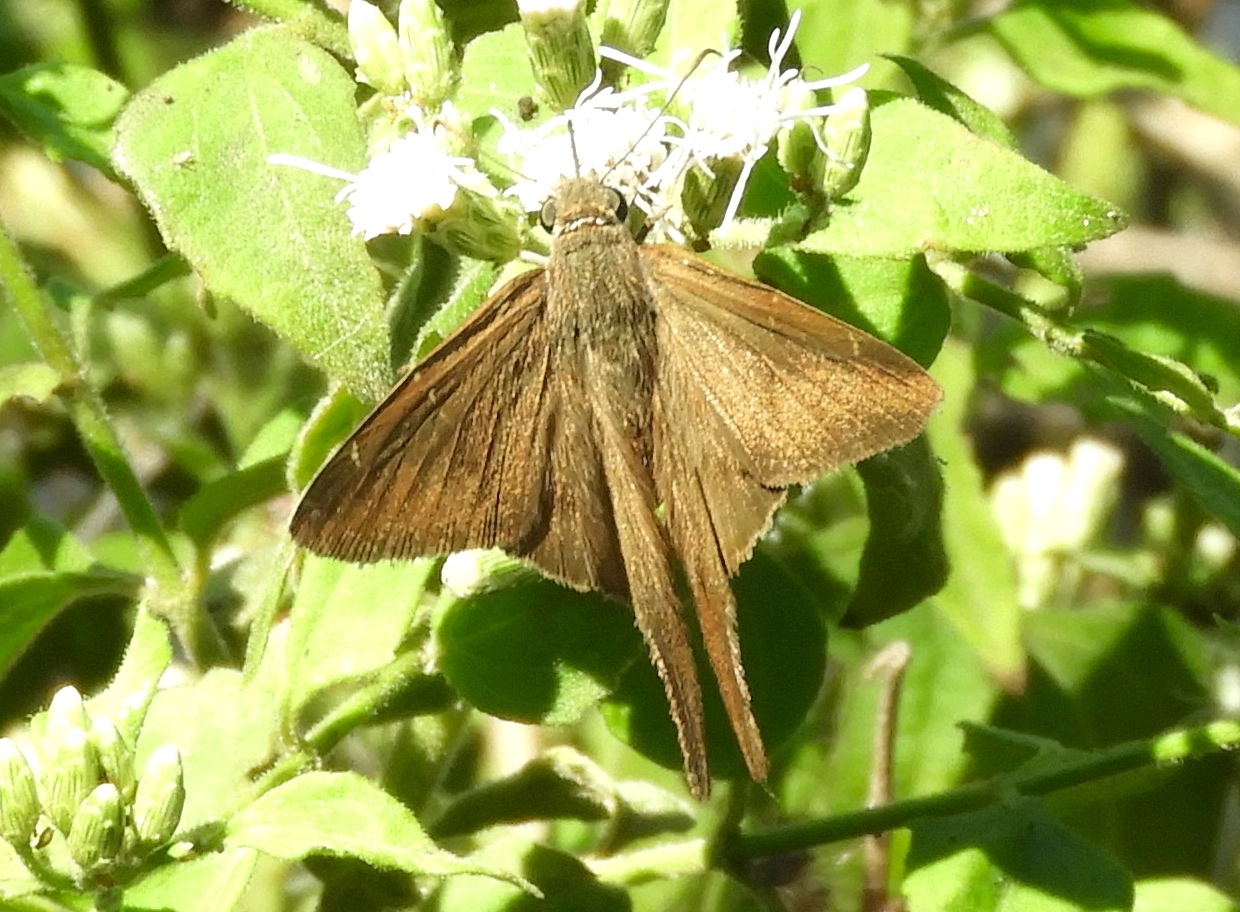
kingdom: Animalia
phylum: Arthropoda
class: Insecta
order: Lepidoptera
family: Hesperiidae
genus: Urbanus
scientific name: Urbanus simplicius
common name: Plain longtail
